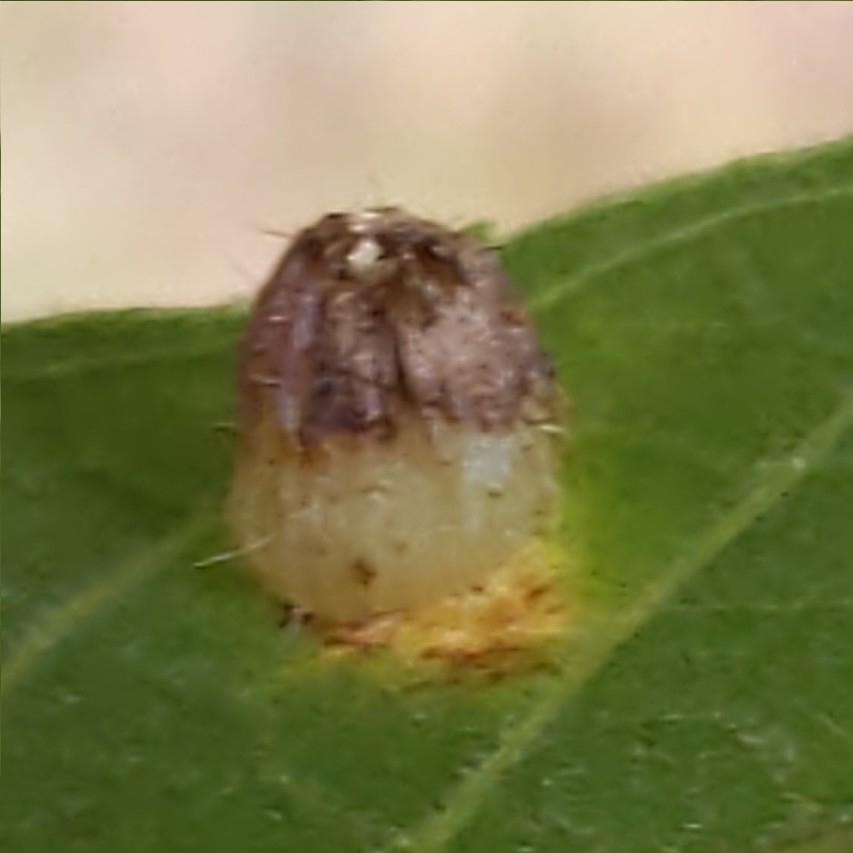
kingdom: Animalia
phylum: Arthropoda
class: Insecta
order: Diptera
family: Cecidomyiidae
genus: Caryomyia
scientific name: Caryomyia inanis
